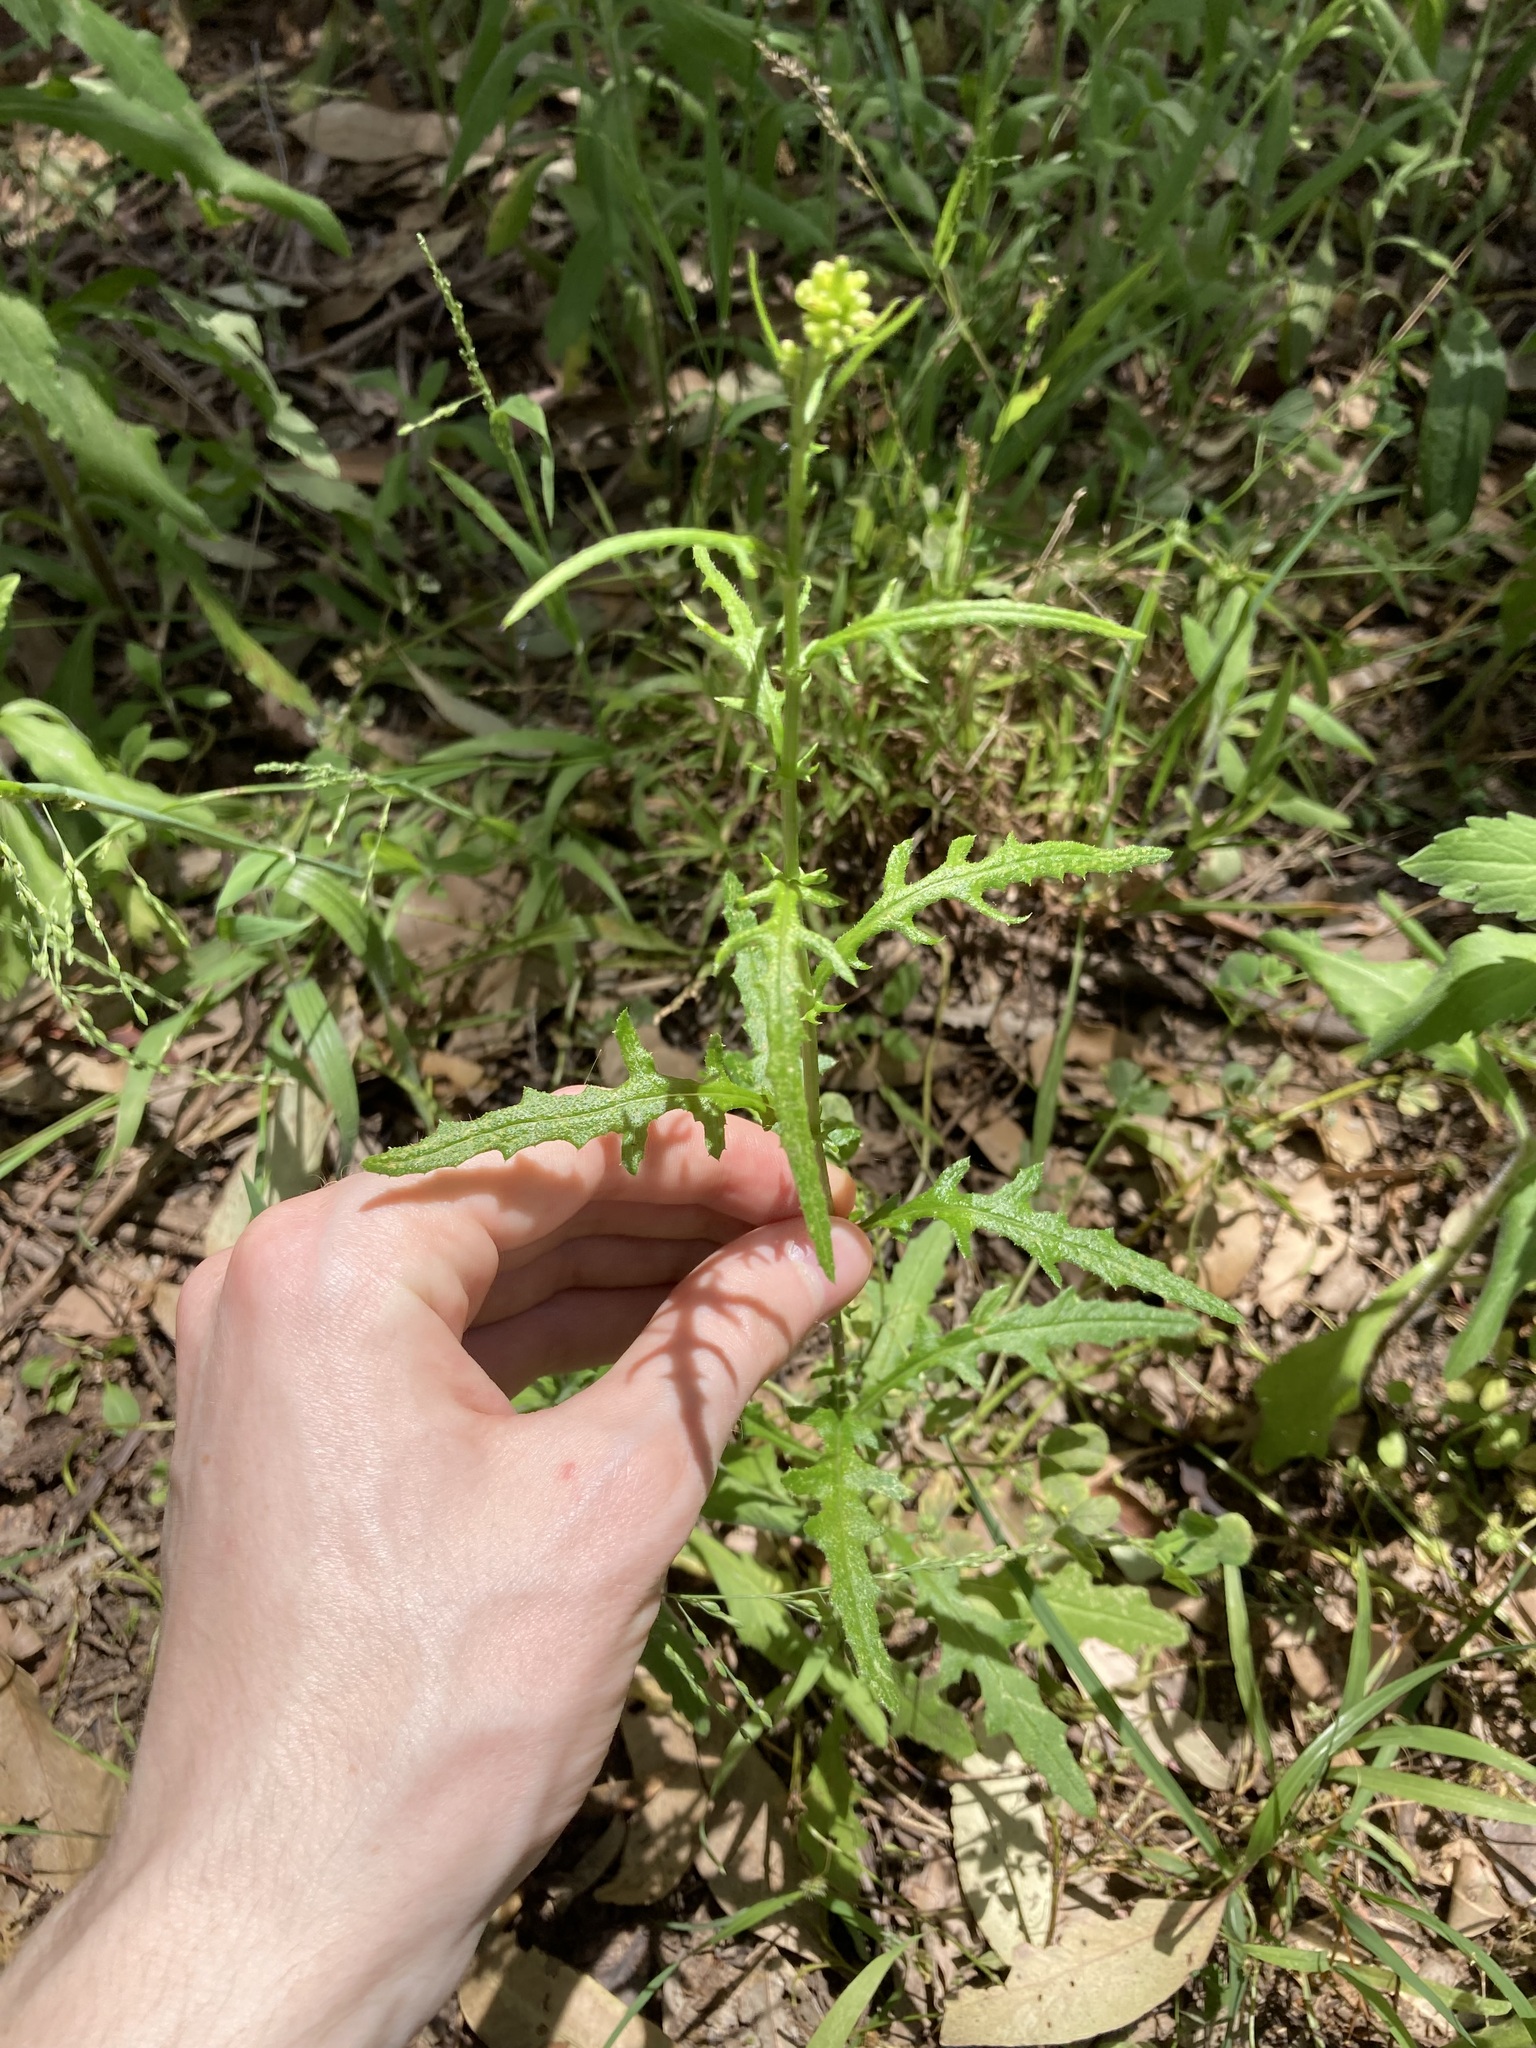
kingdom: Plantae
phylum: Tracheophyta
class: Magnoliopsida
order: Asterales
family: Asteraceae
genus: Senecio
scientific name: Senecio hispidulus
